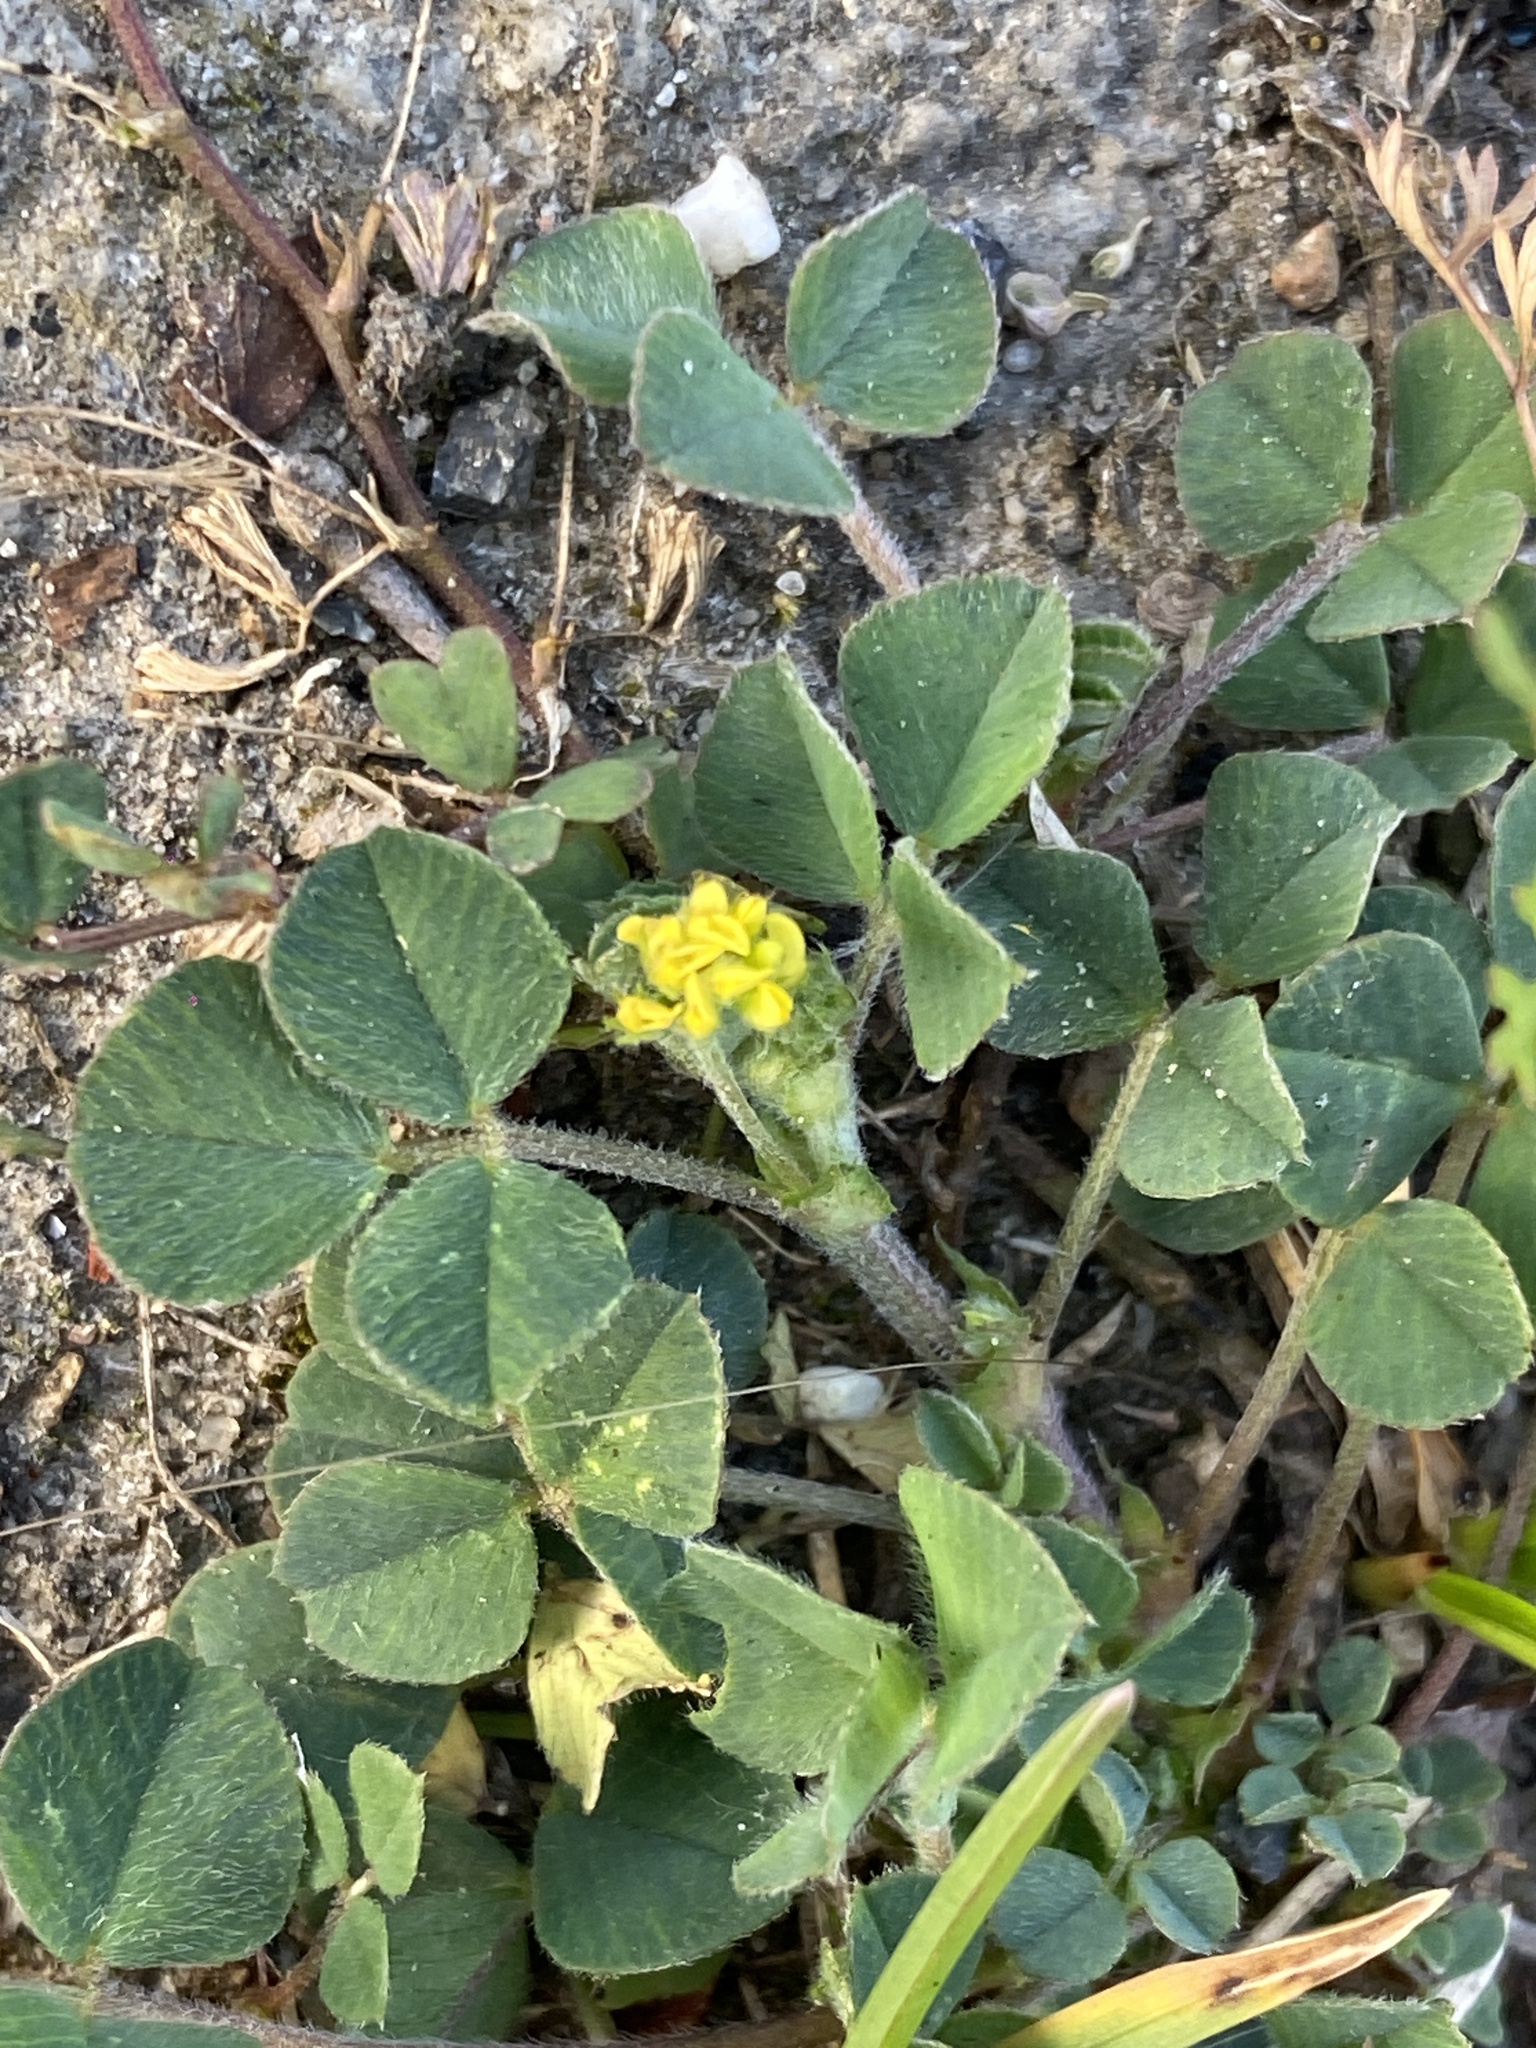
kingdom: Plantae
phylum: Tracheophyta
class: Magnoliopsida
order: Fabales
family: Fabaceae
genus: Medicago
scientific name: Medicago lupulina
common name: Black medick
